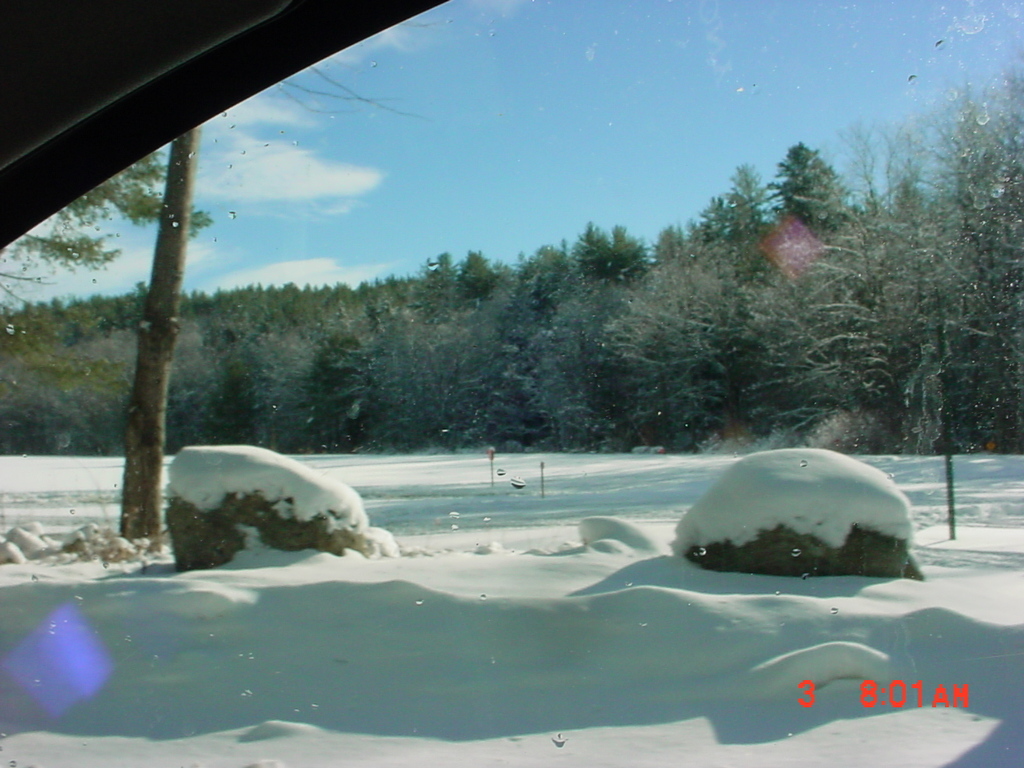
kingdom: Plantae
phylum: Tracheophyta
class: Pinopsida
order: Pinales
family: Pinaceae
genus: Pinus
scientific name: Pinus strobus
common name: Weymouth pine
